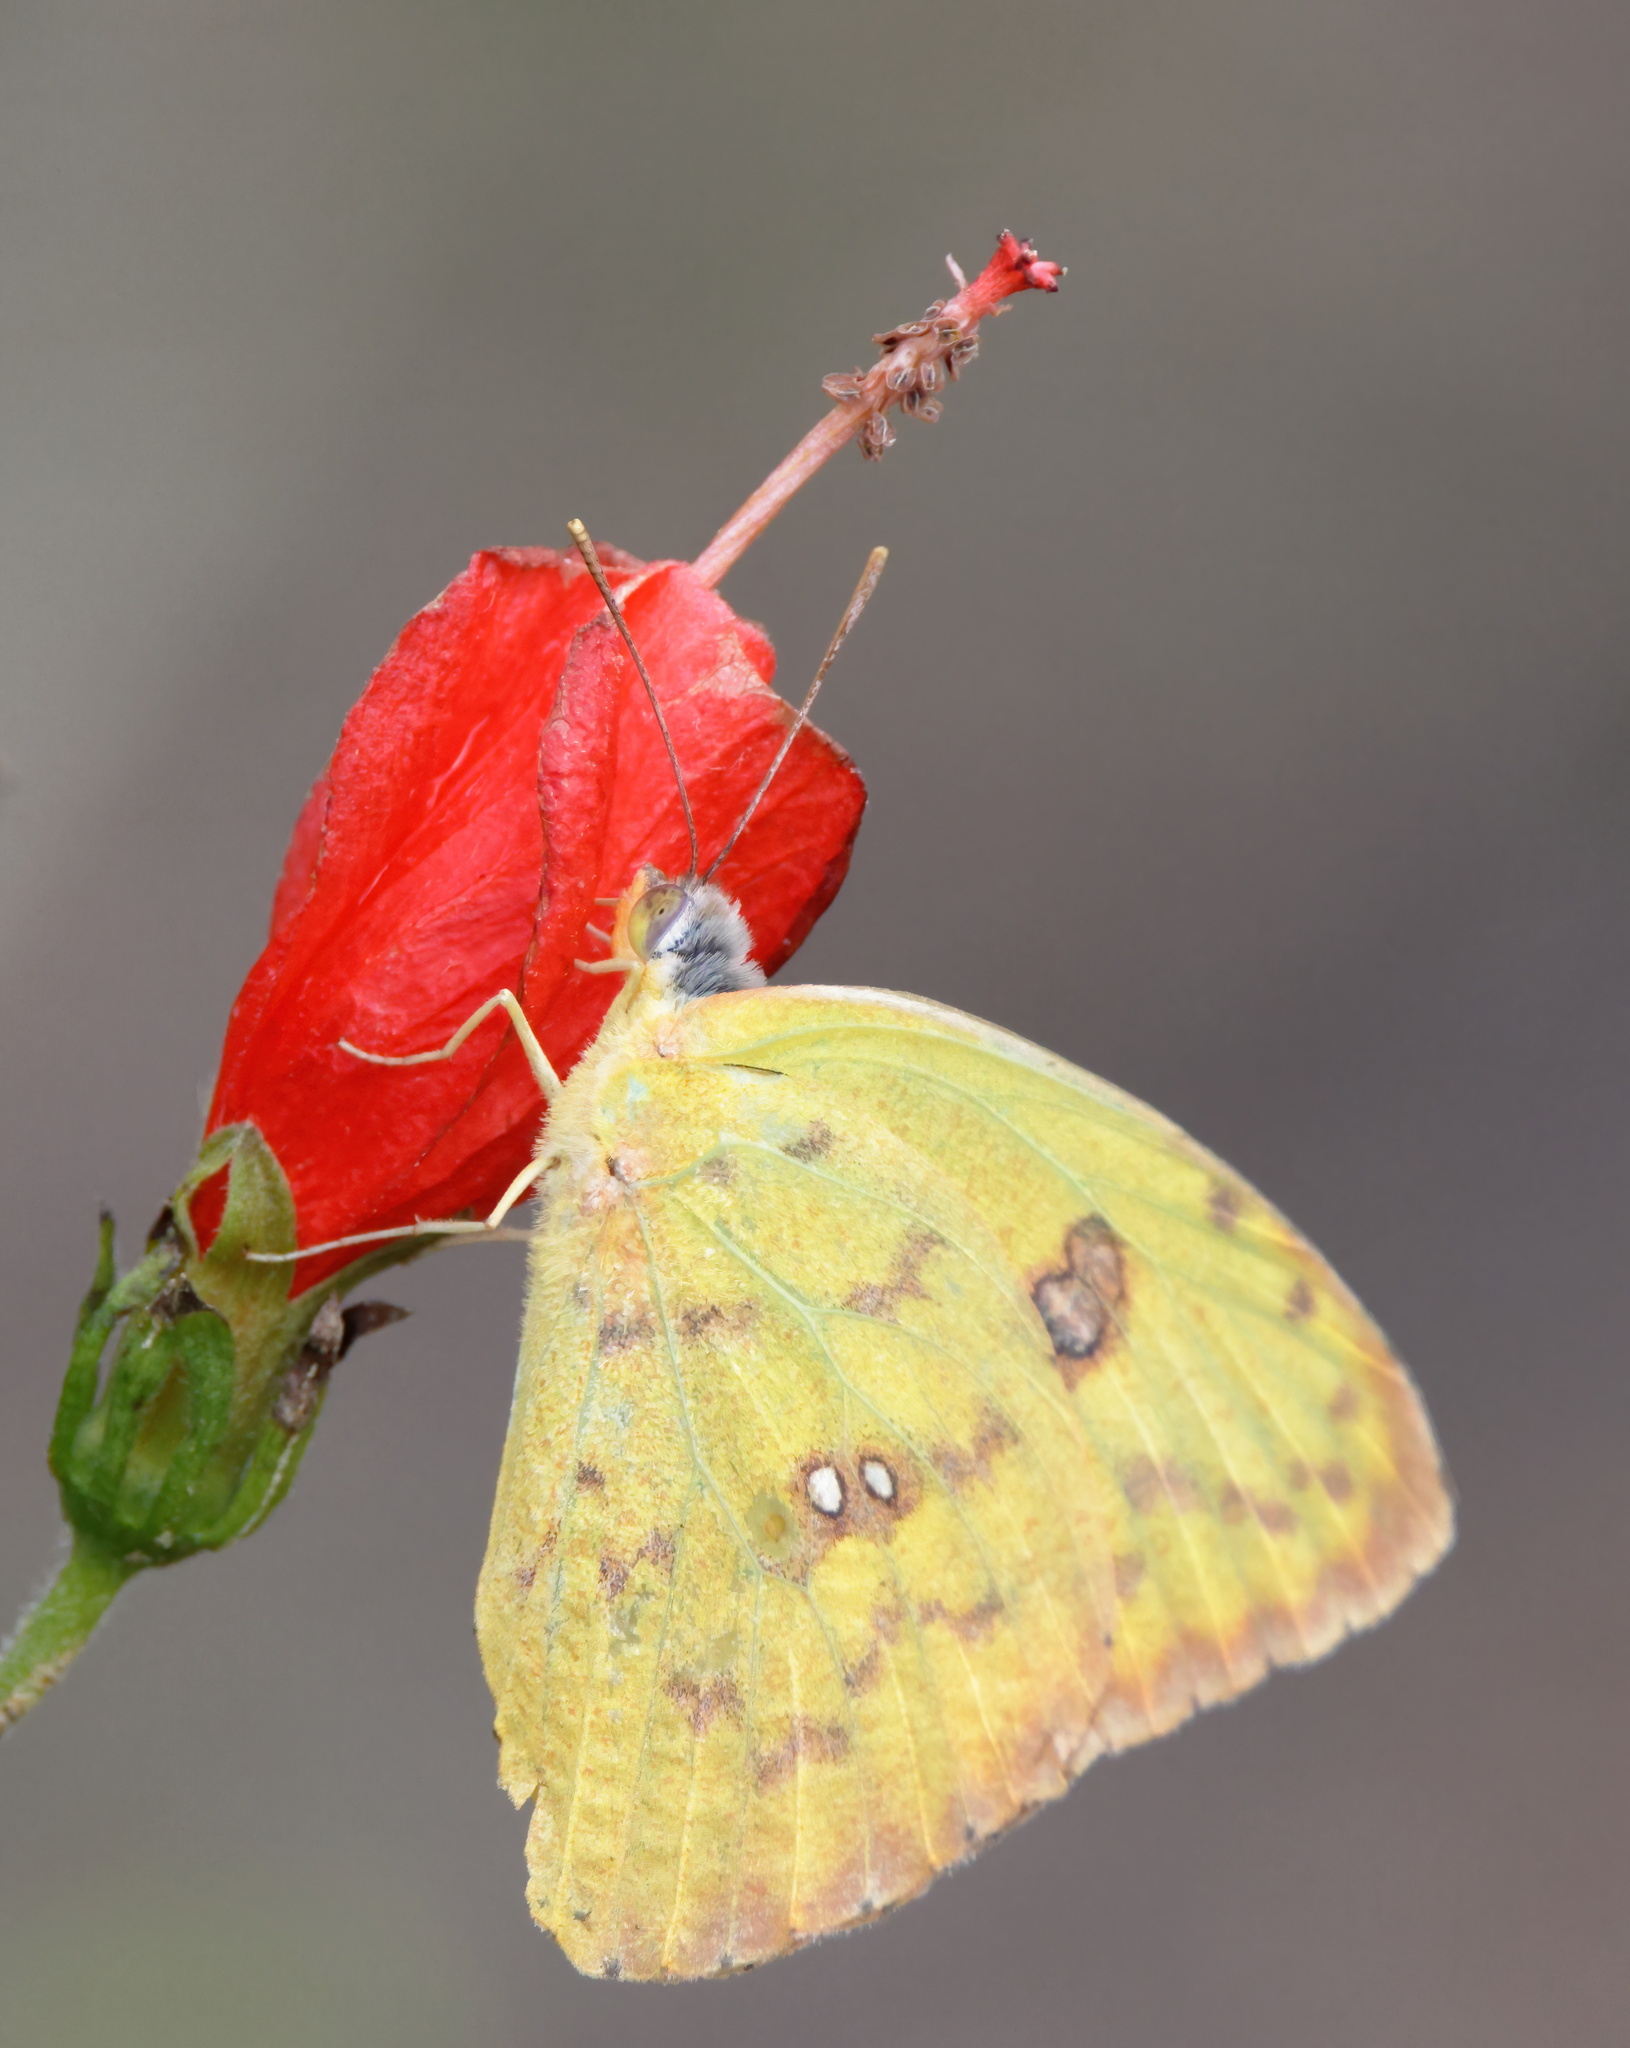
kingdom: Animalia
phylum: Arthropoda
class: Insecta
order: Lepidoptera
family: Pieridae
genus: Phoebis
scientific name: Phoebis marcellina
